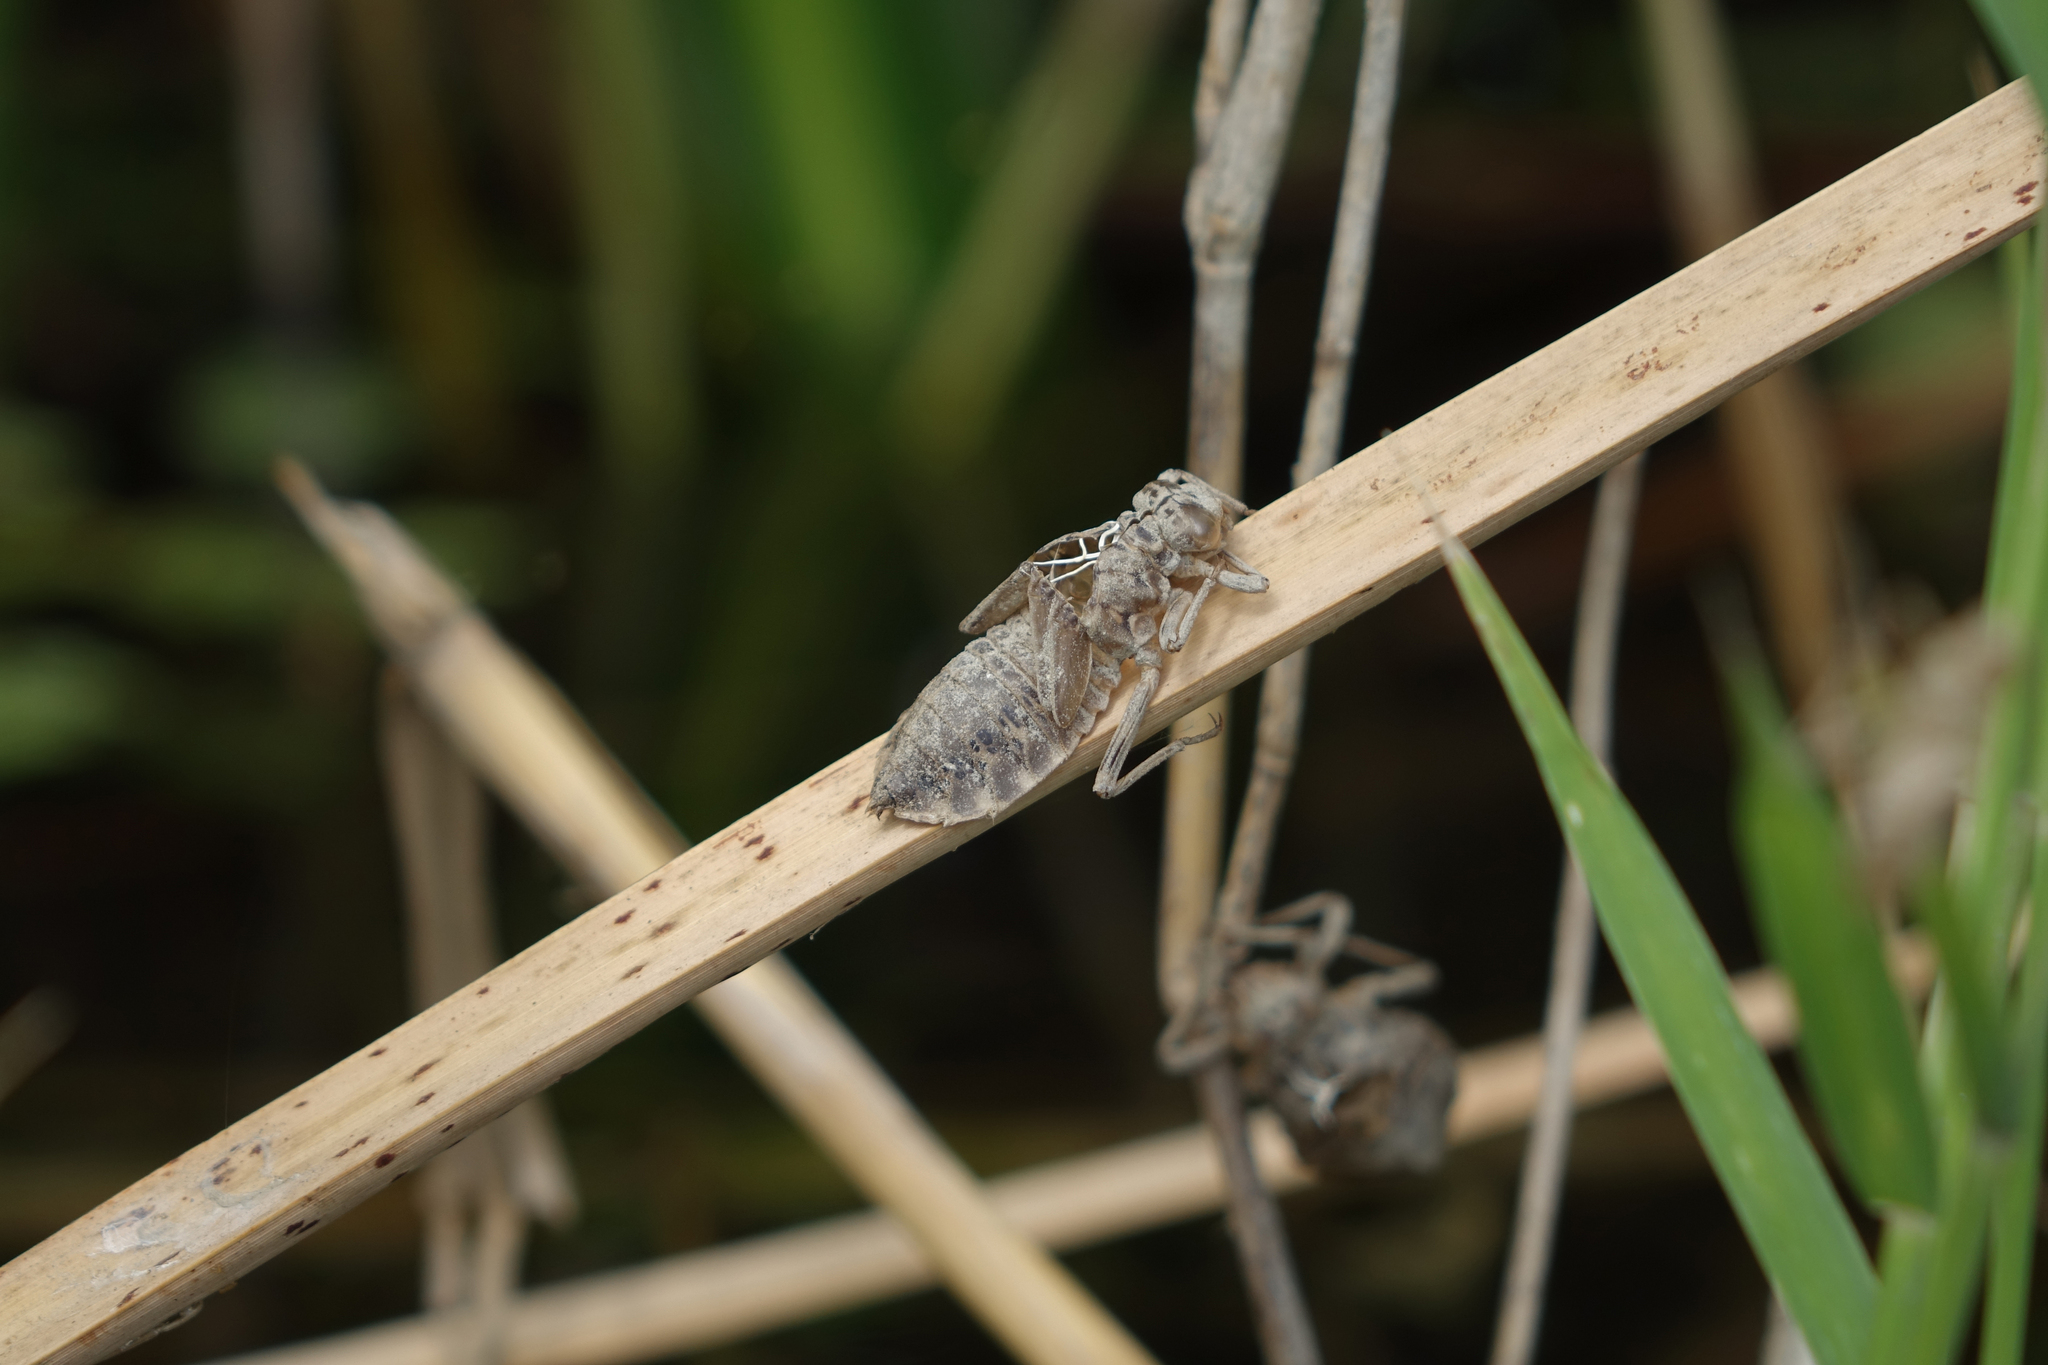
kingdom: Animalia
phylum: Arthropoda
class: Insecta
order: Odonata
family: Gomphidae
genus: Lindenia
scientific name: Lindenia tetraphylla
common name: Bladetail
